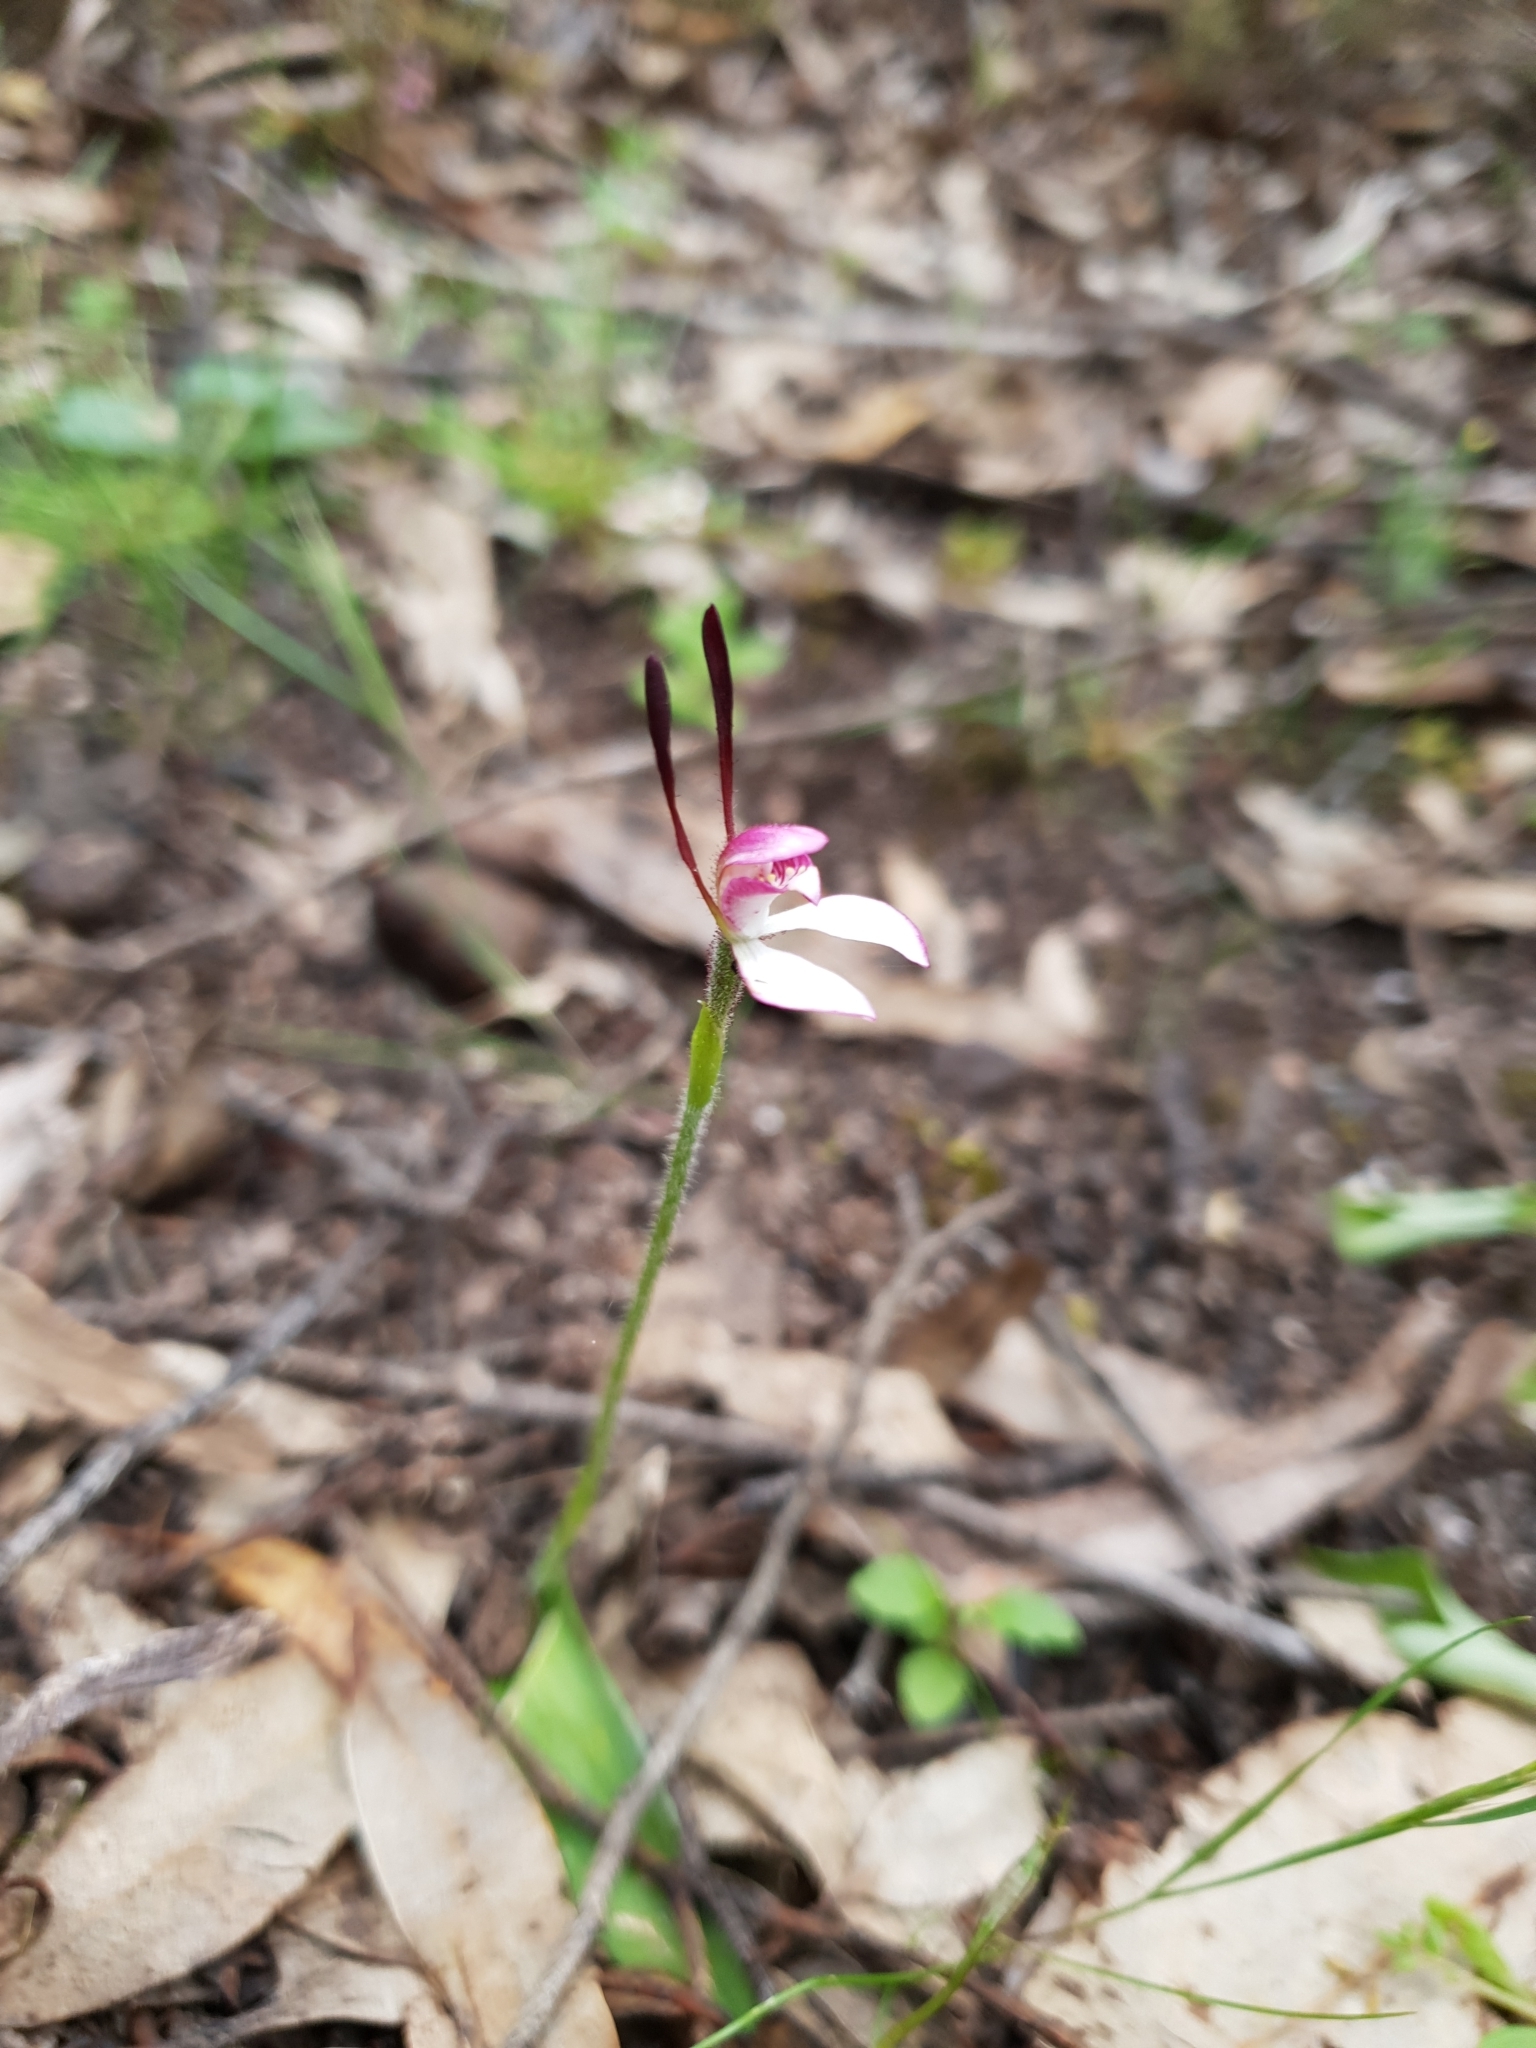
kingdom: Plantae
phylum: Tracheophyta
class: Liliopsida
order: Asparagales
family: Orchidaceae
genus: Leptoceras
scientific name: Leptoceras menziesii
